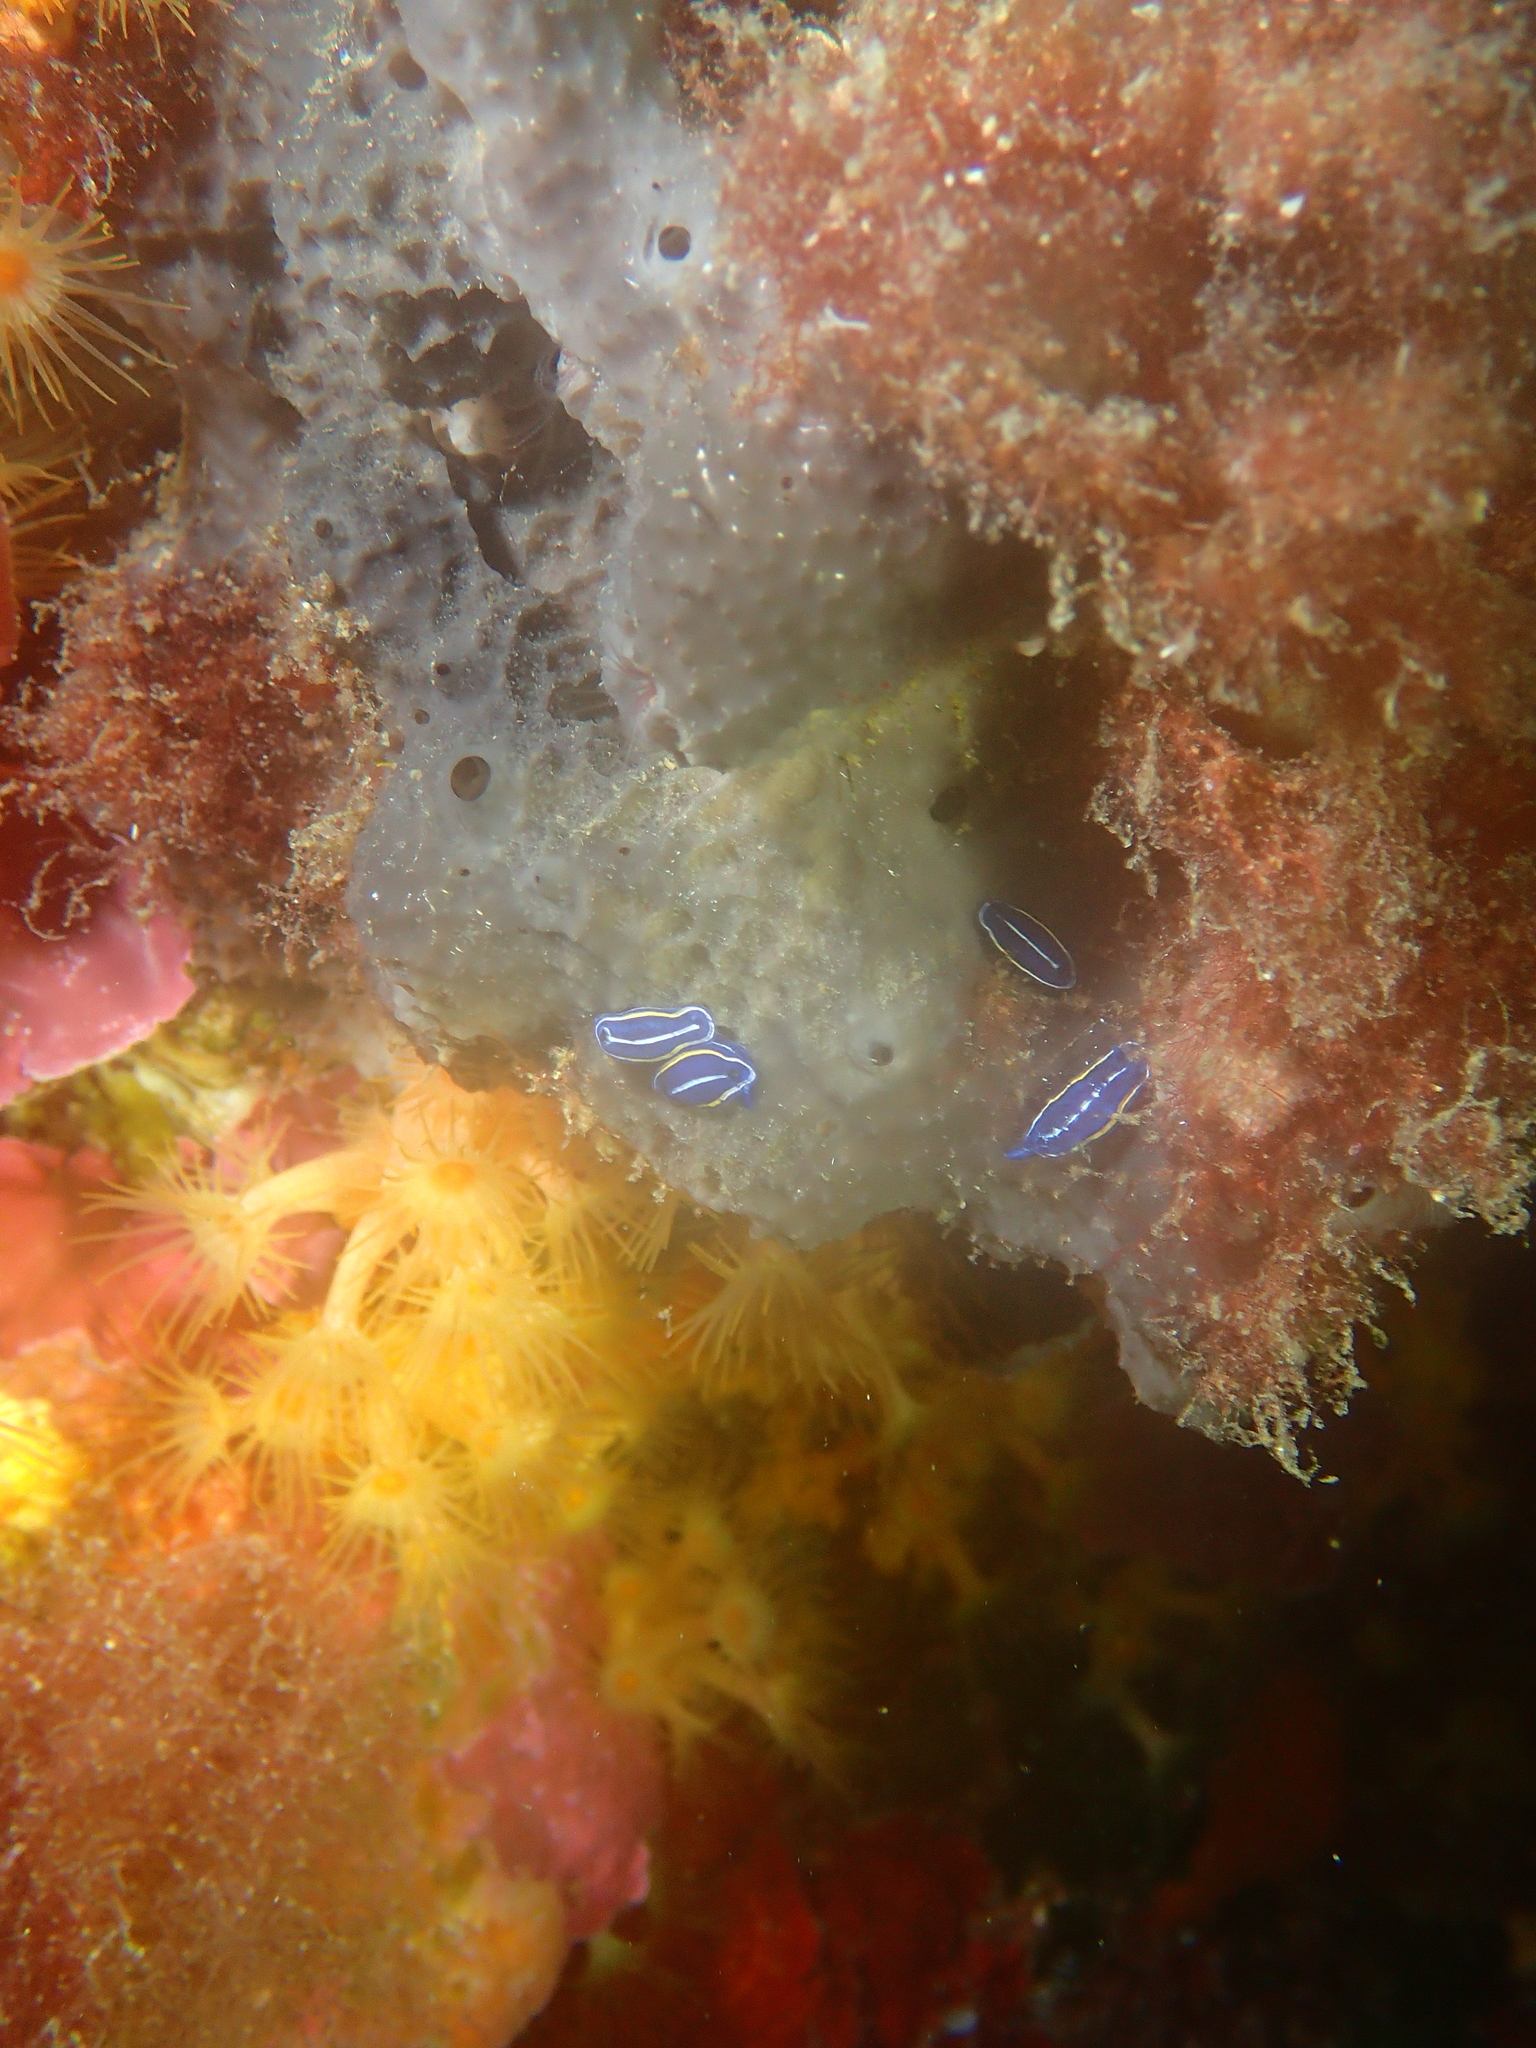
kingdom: Animalia
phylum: Mollusca
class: Gastropoda
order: Nudibranchia
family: Chromodorididae
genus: Felimare
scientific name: Felimare orsinii
